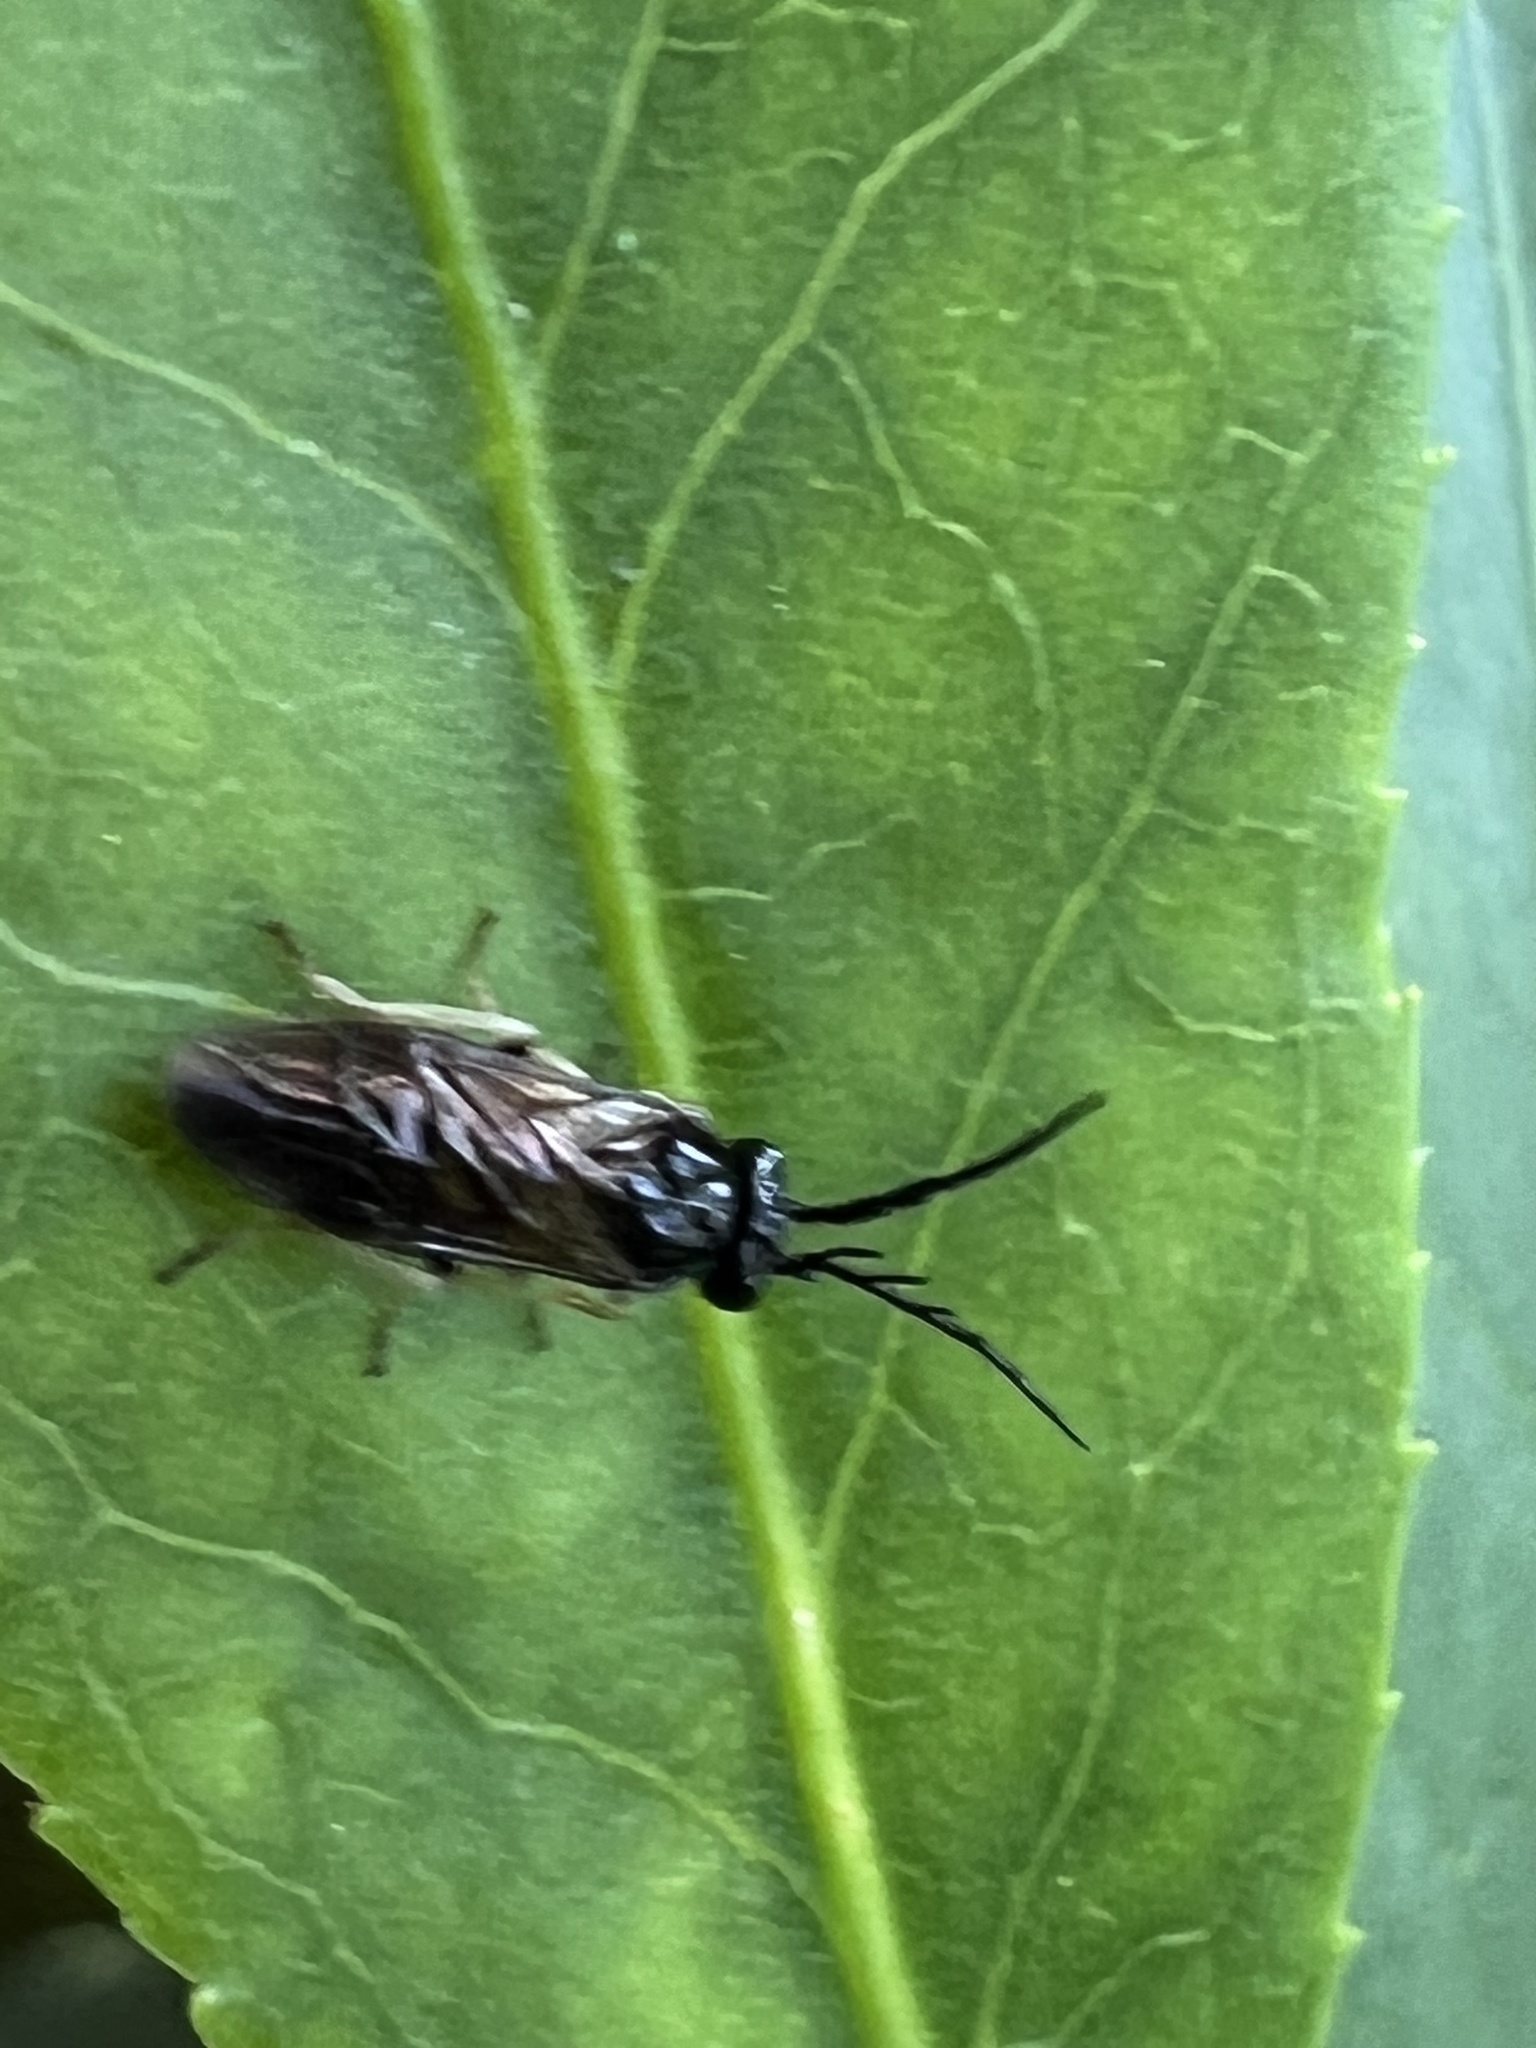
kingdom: Animalia
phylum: Arthropoda
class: Insecta
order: Hymenoptera
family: Tenthredinidae
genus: Cladius
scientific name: Cladius pectinicornis
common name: Sawfly
